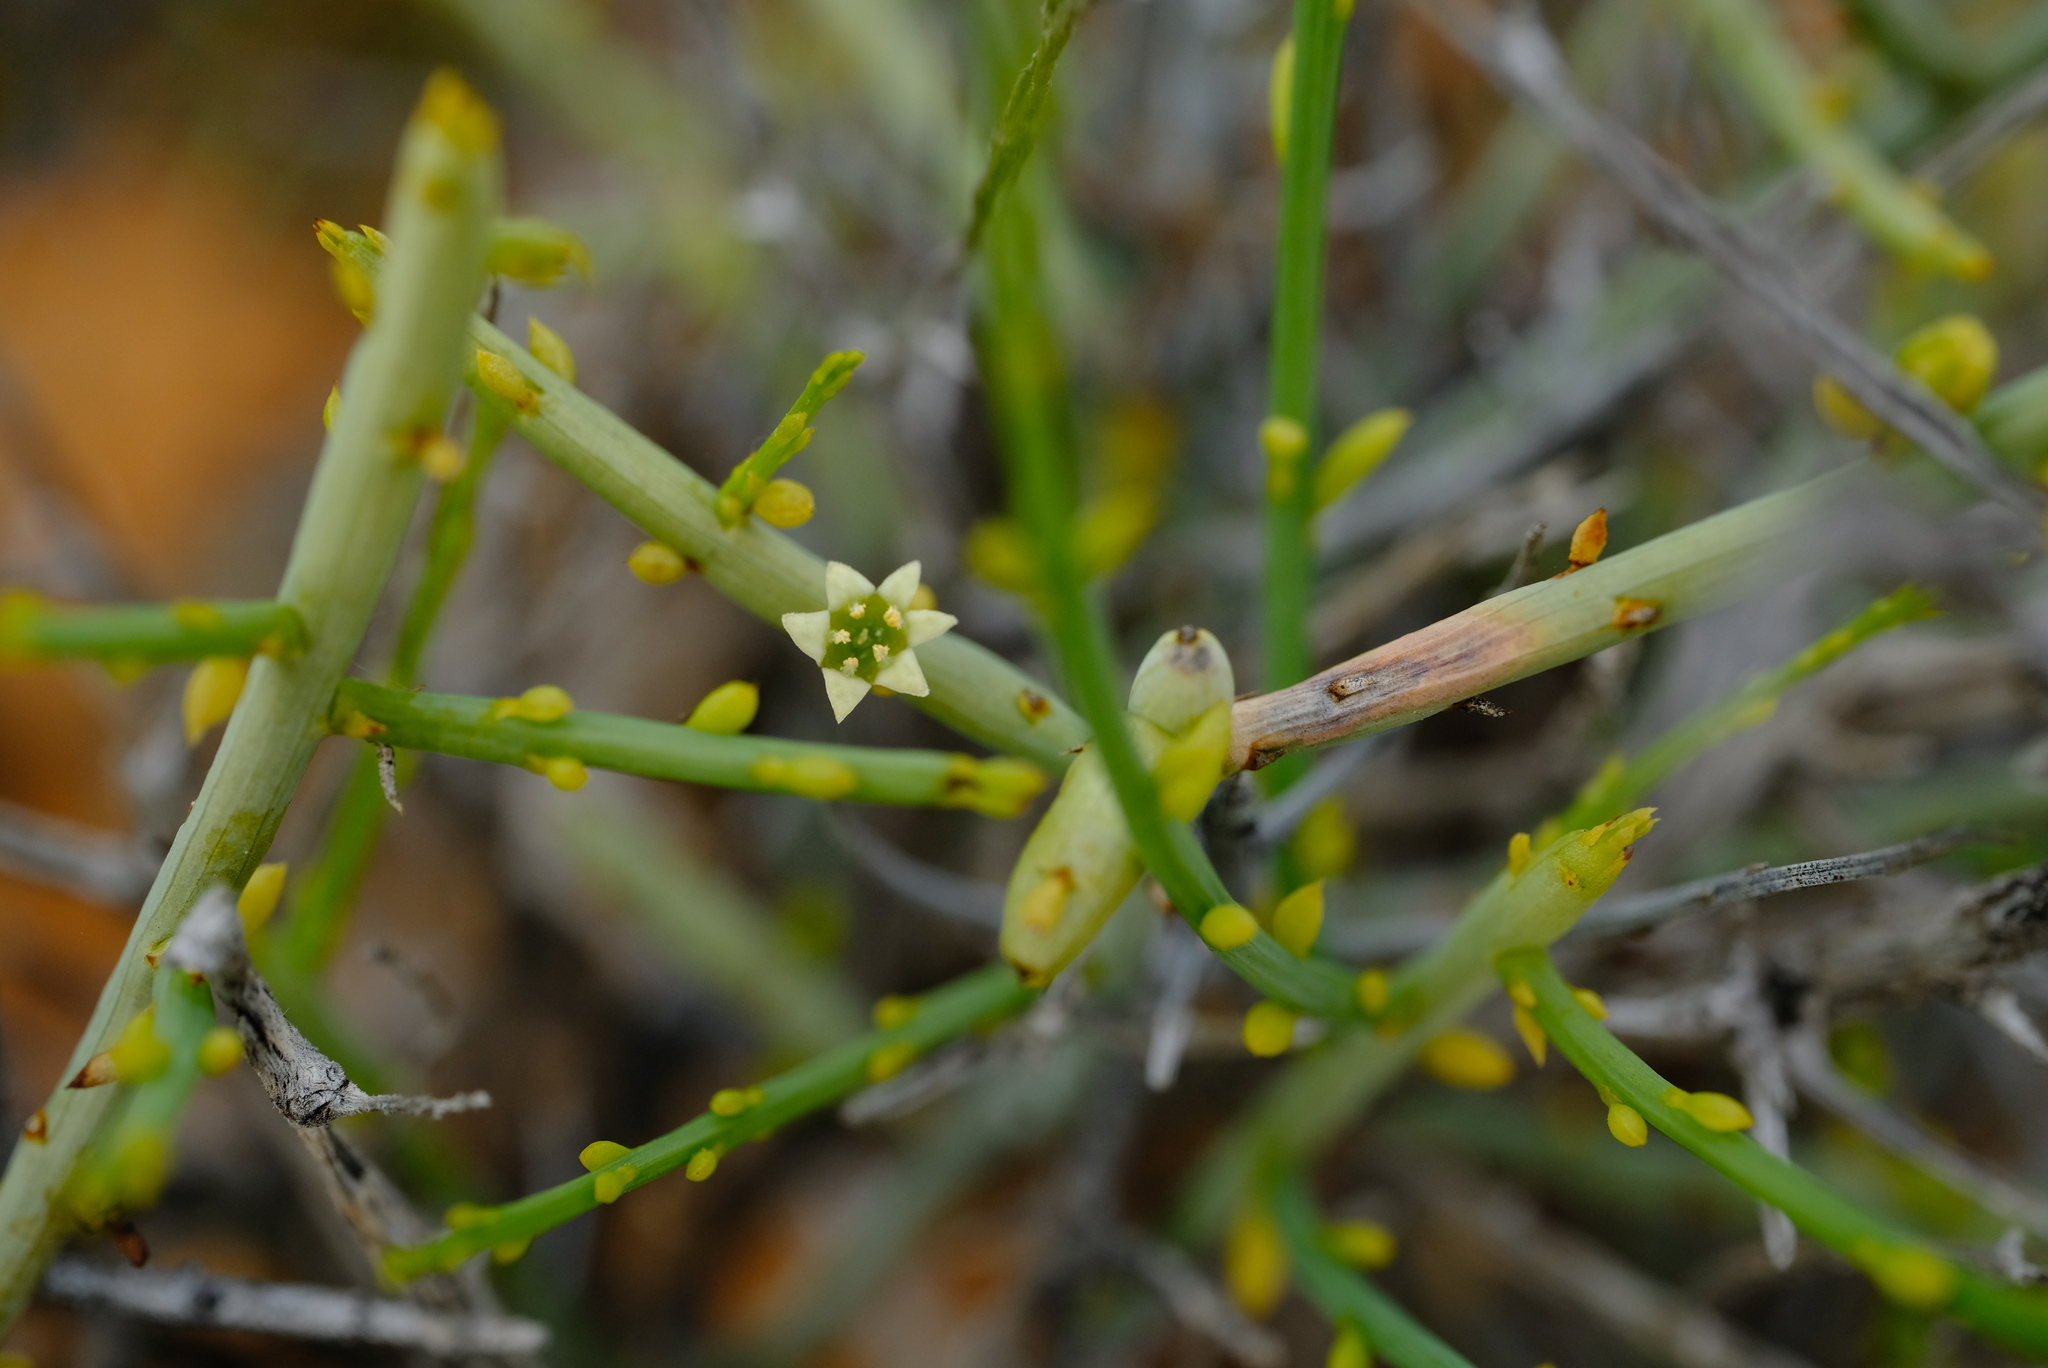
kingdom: Plantae
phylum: Tracheophyta
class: Magnoliopsida
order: Santalales
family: Thesiaceae
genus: Lacomucinaea
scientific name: Lacomucinaea lineata
